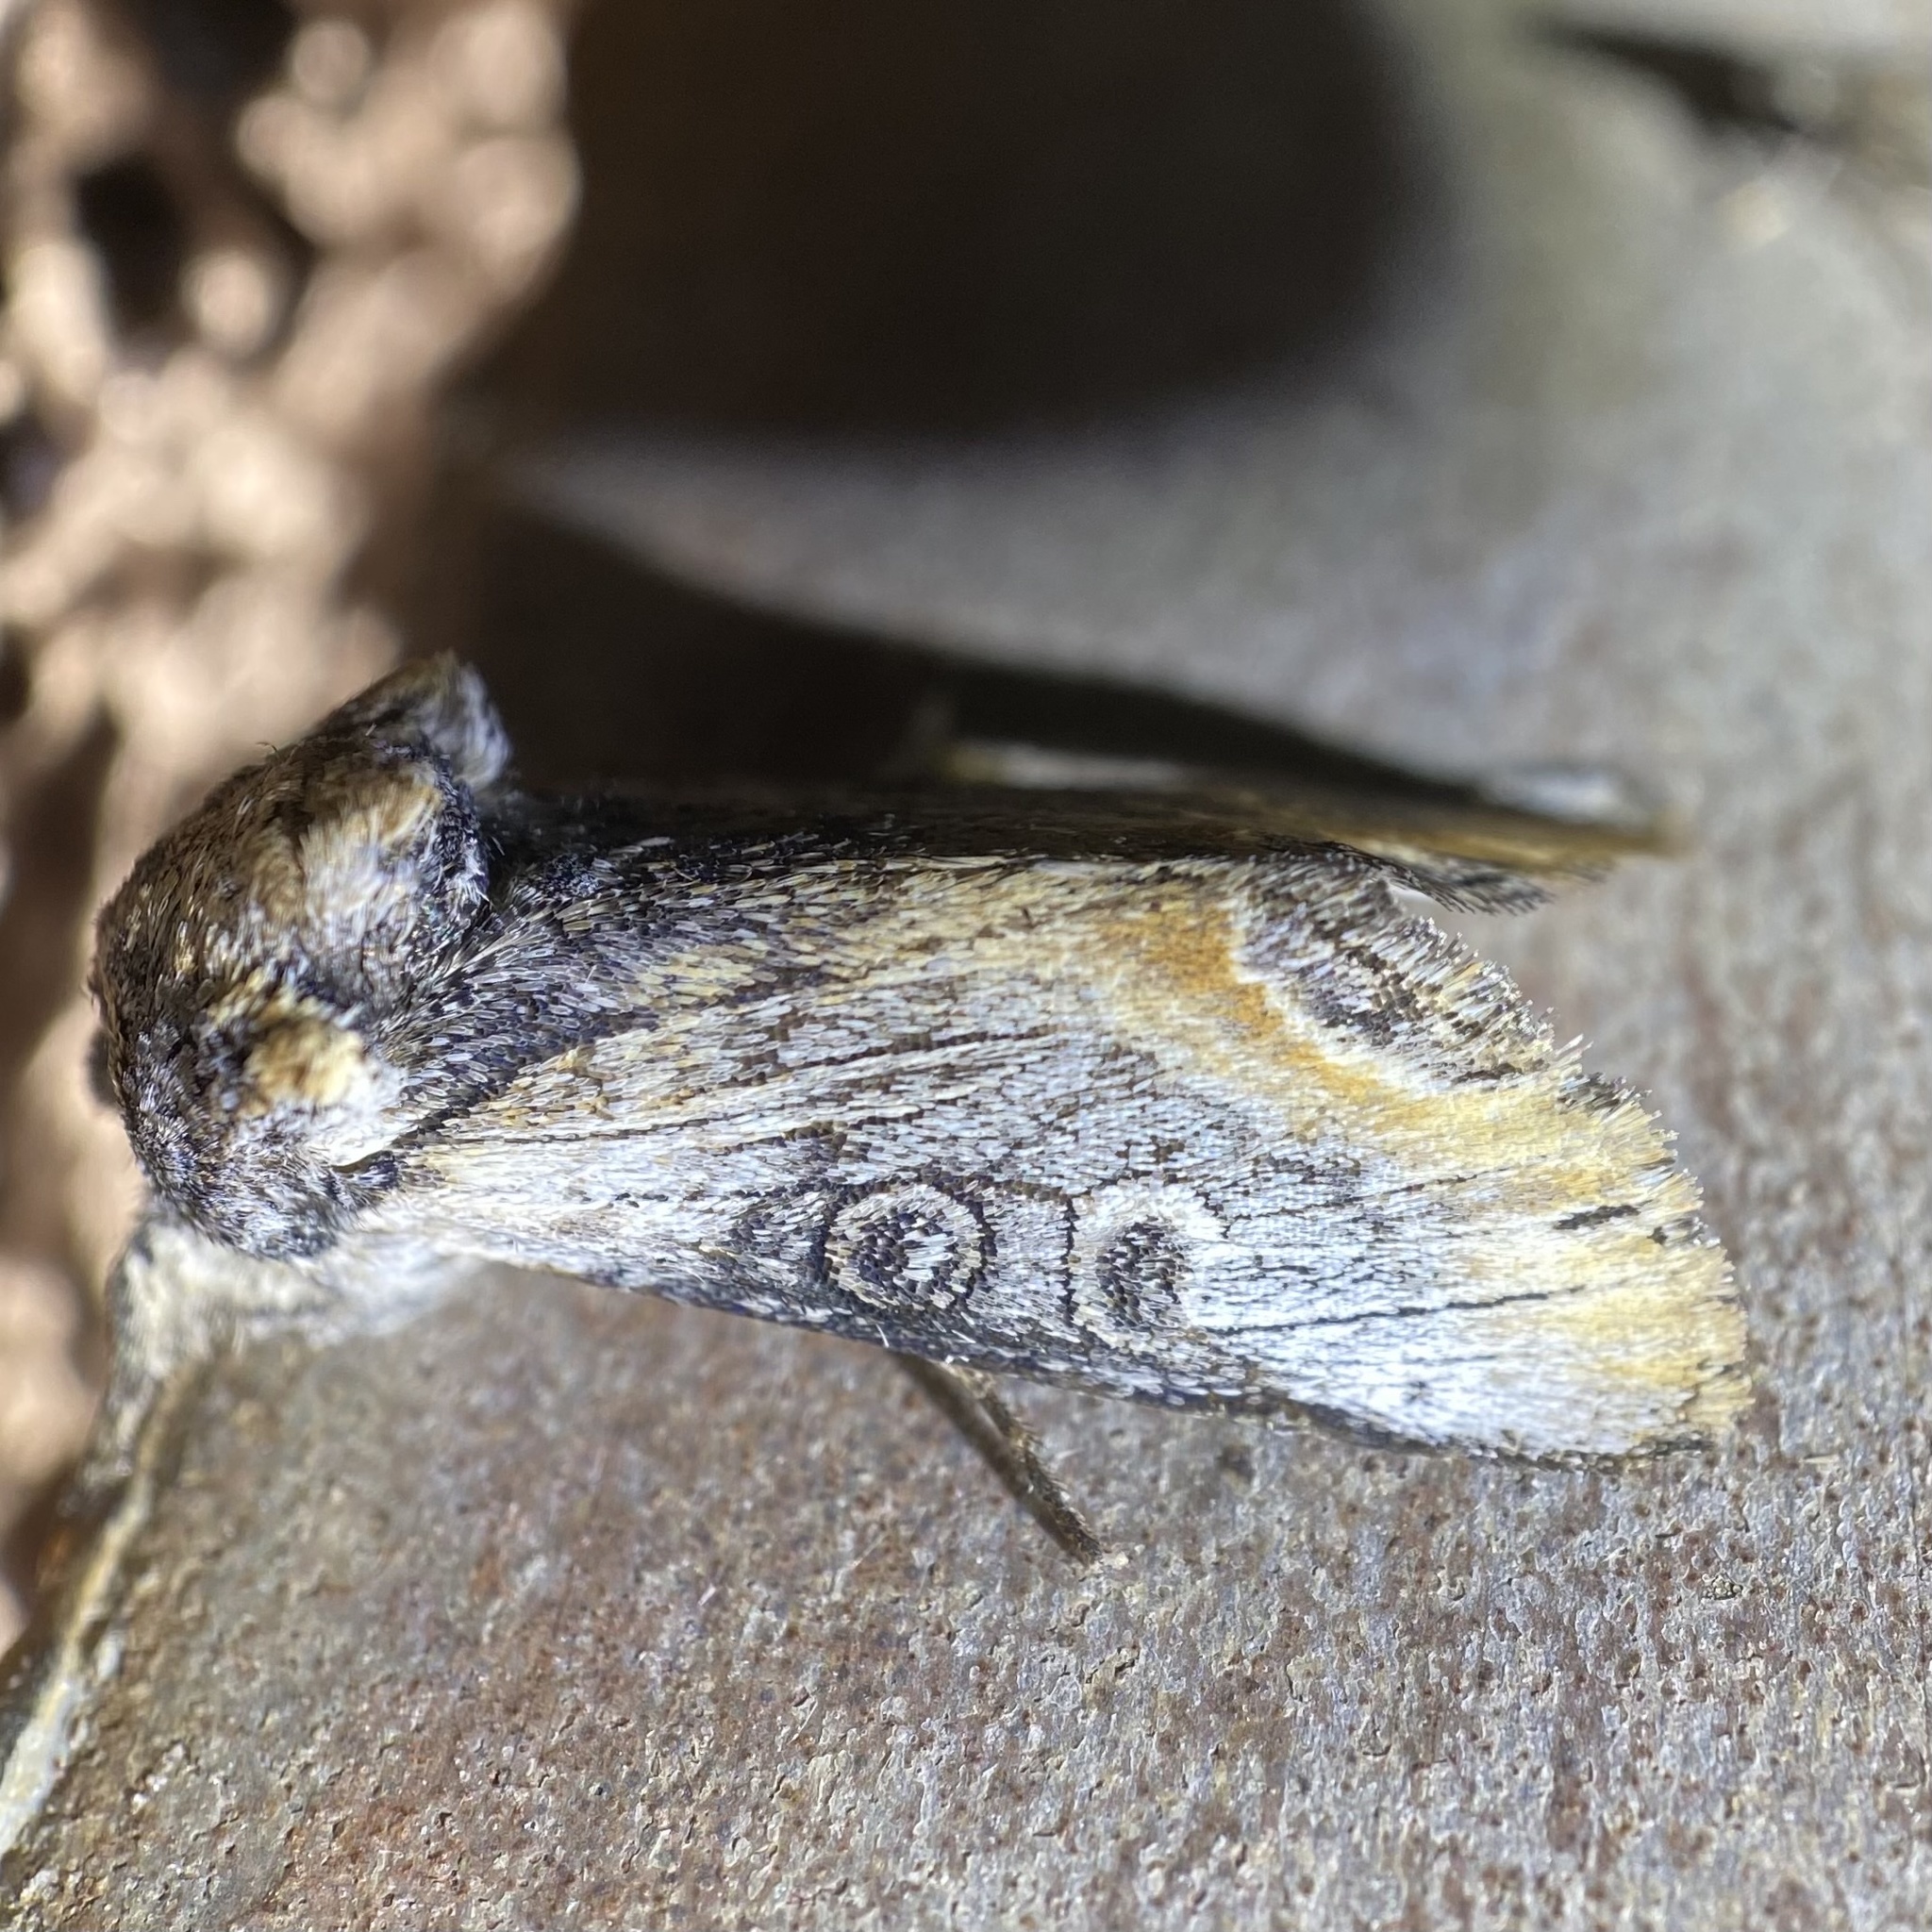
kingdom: Animalia
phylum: Arthropoda
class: Insecta
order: Lepidoptera
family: Noctuidae
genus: Walterella
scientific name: Walterella ocellata
